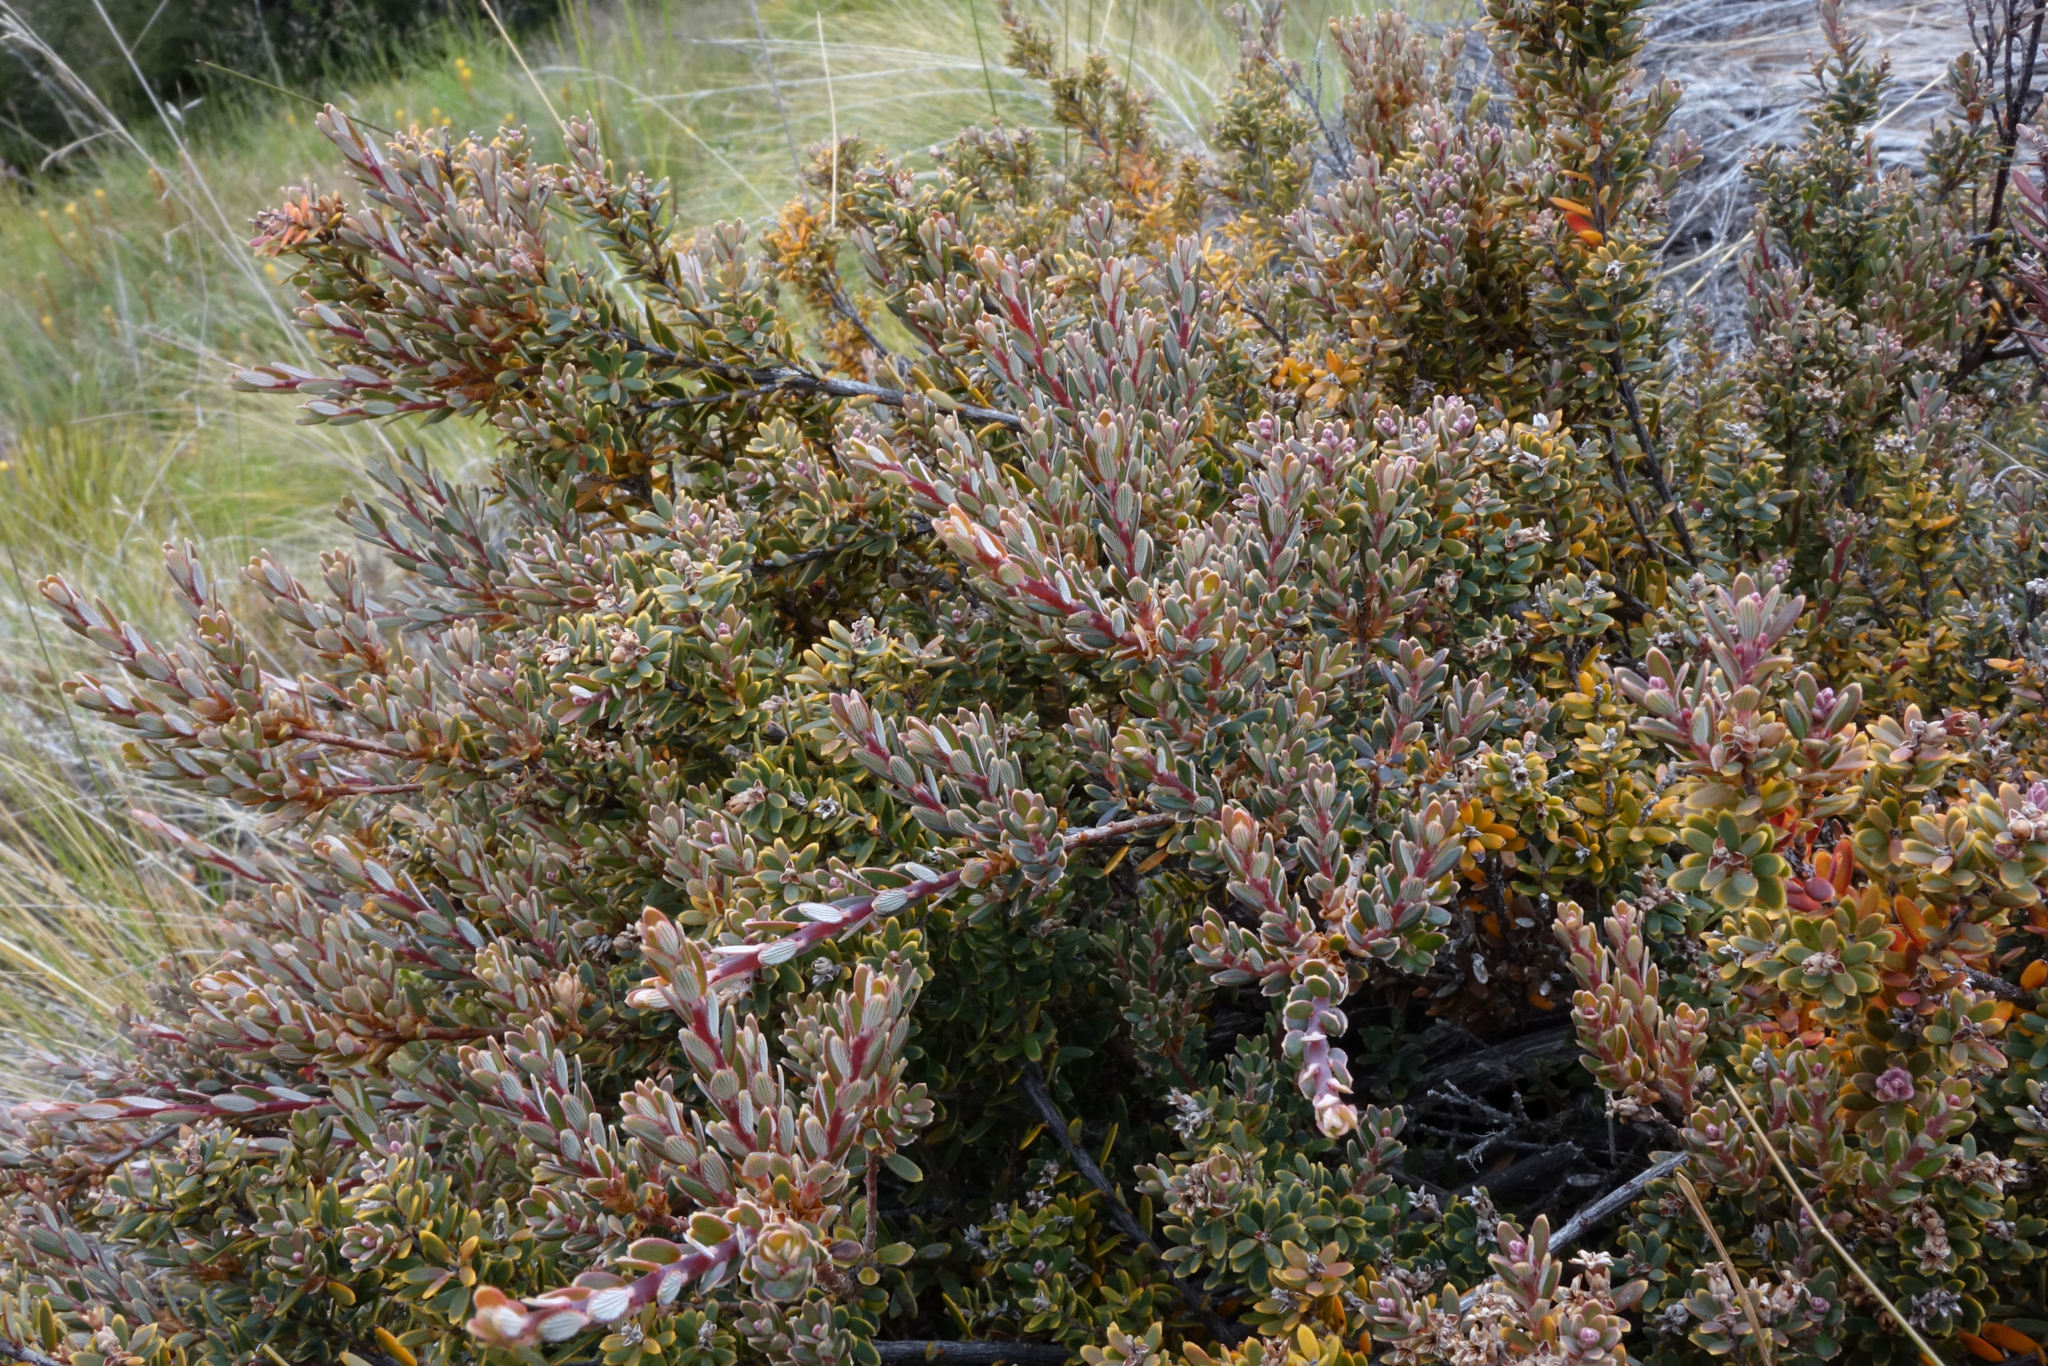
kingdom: Plantae
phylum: Tracheophyta
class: Magnoliopsida
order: Ericales
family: Ericaceae
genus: Acrothamnus
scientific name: Acrothamnus colensoi
